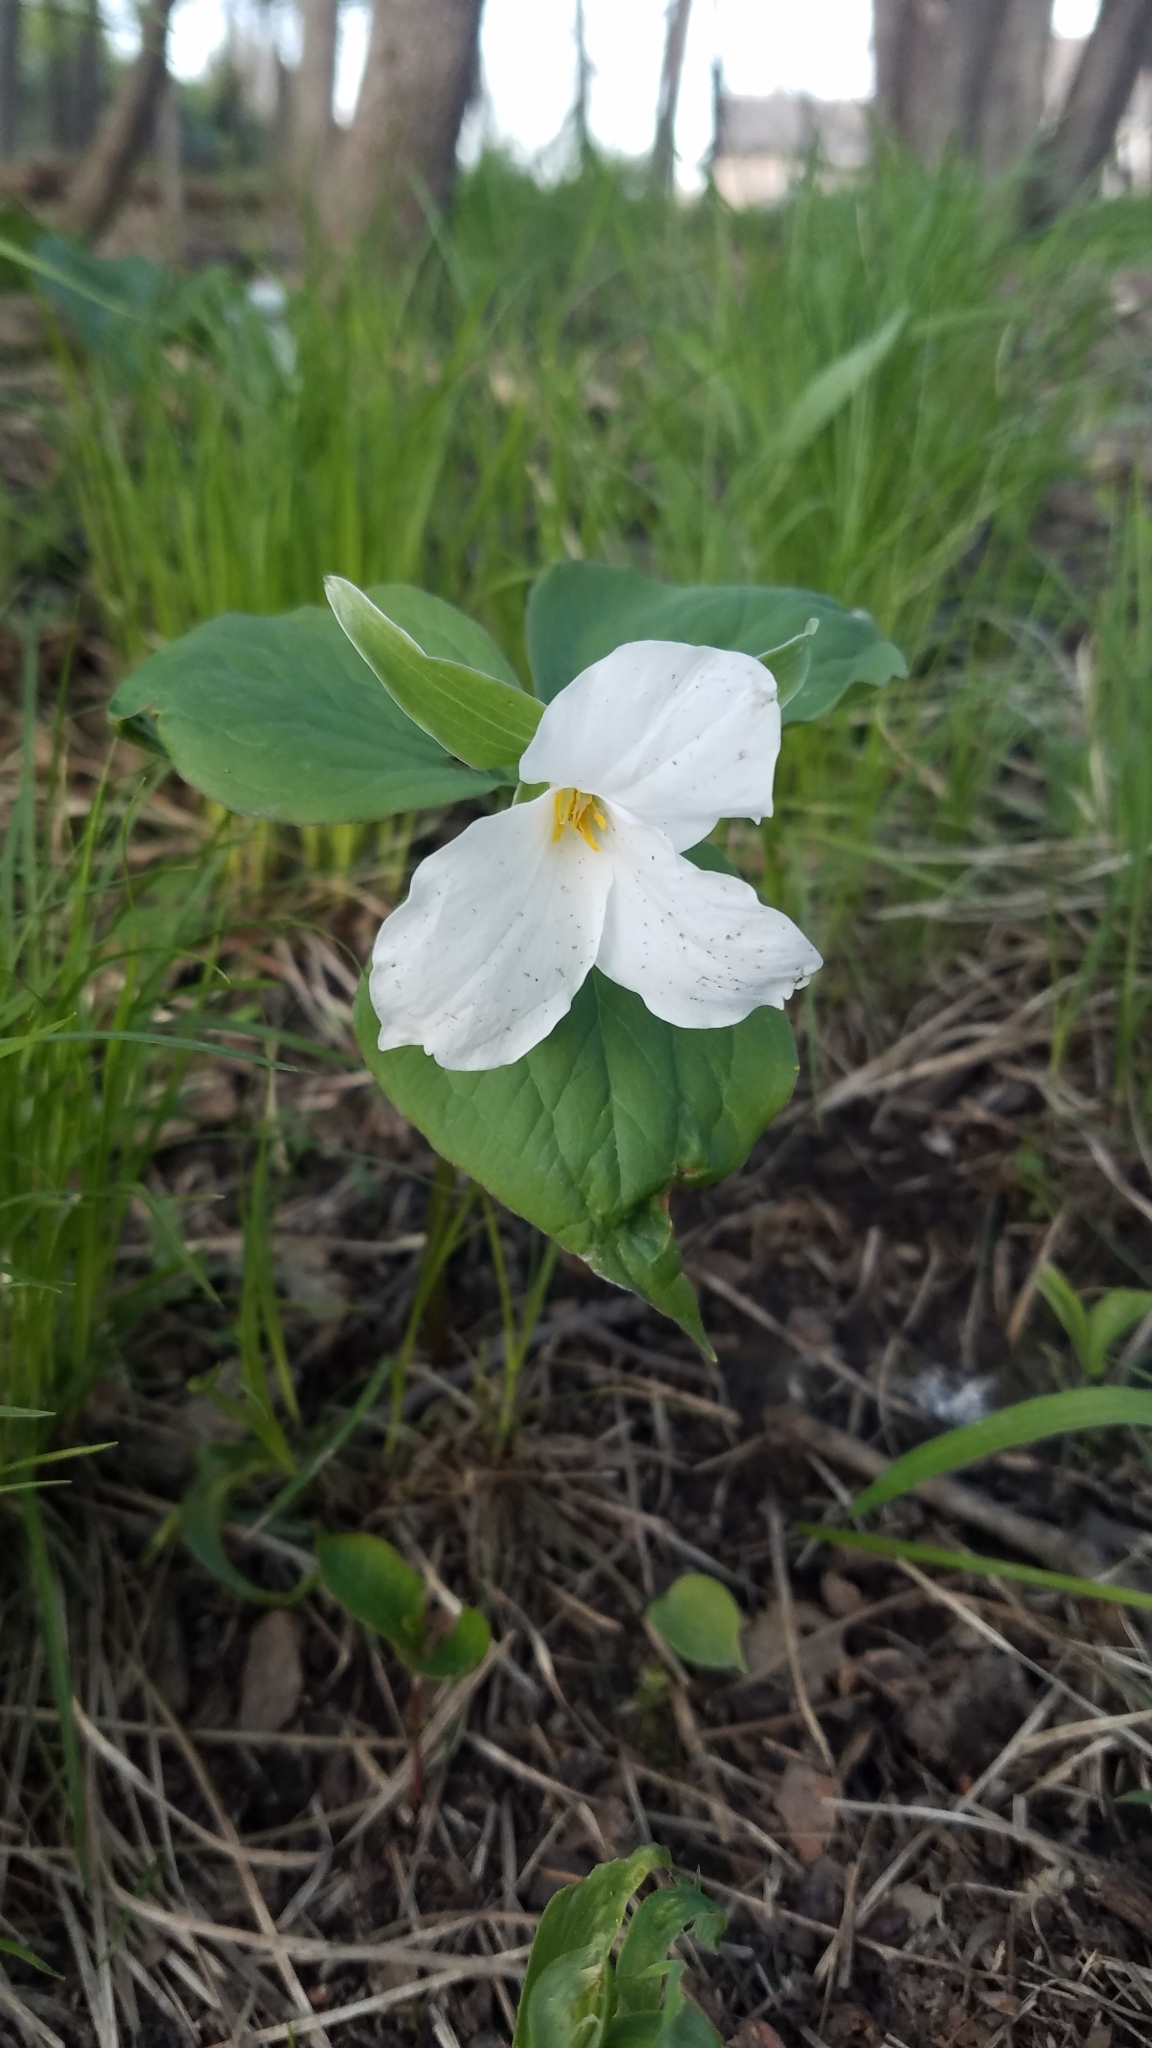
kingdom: Plantae
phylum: Tracheophyta
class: Liliopsida
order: Liliales
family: Melanthiaceae
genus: Trillium
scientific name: Trillium grandiflorum
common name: Great white trillium
